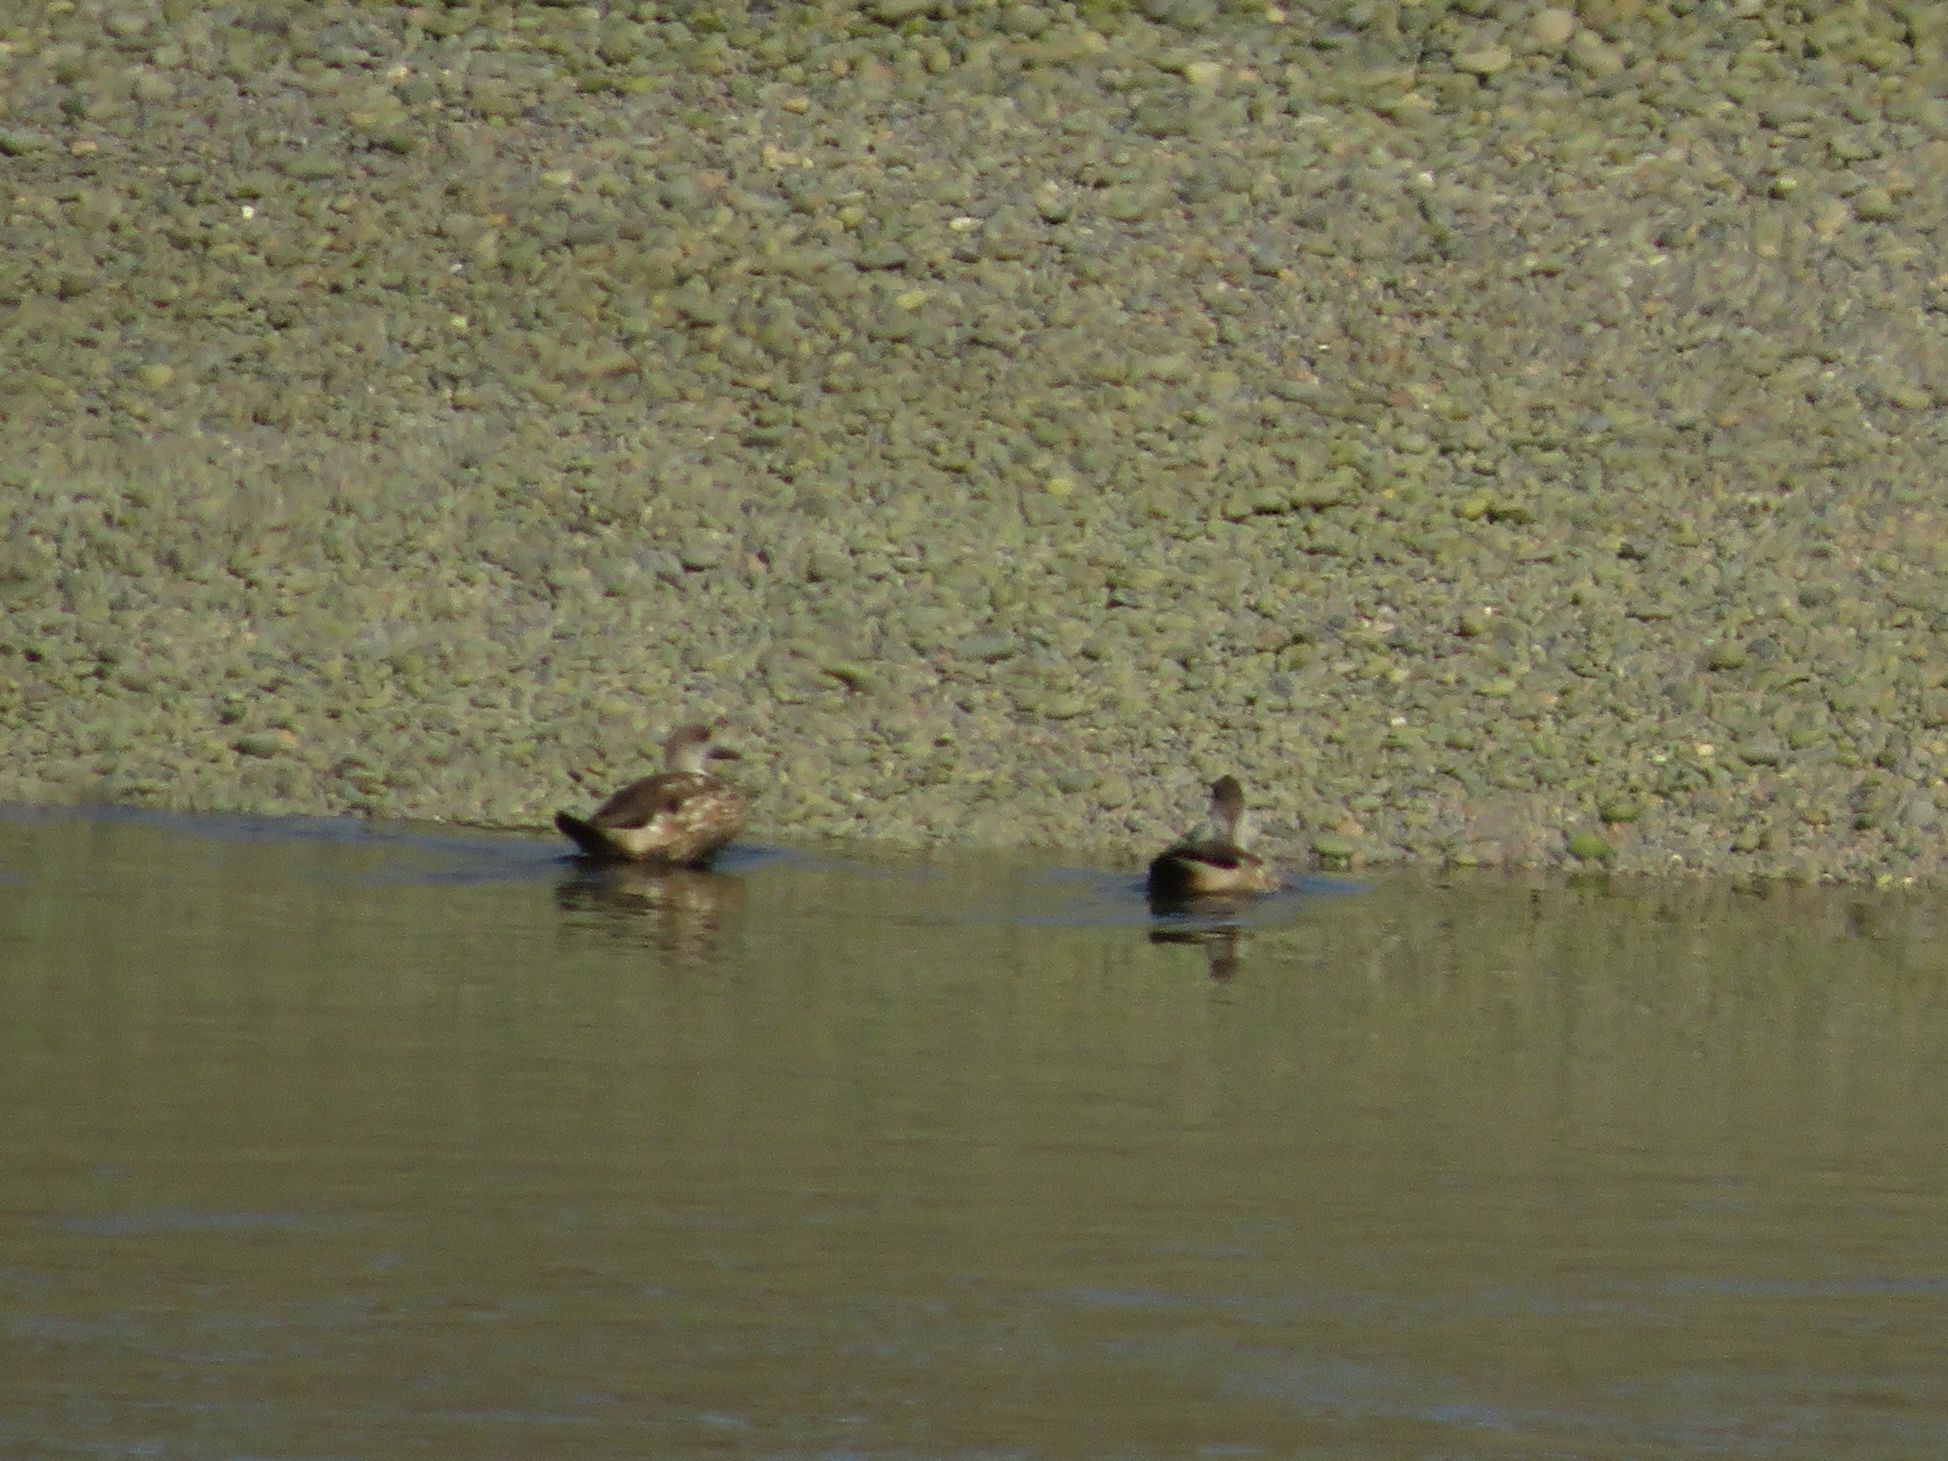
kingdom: Animalia
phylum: Chordata
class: Aves
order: Anseriformes
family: Anatidae
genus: Lophonetta
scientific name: Lophonetta specularioides
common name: Crested duck
